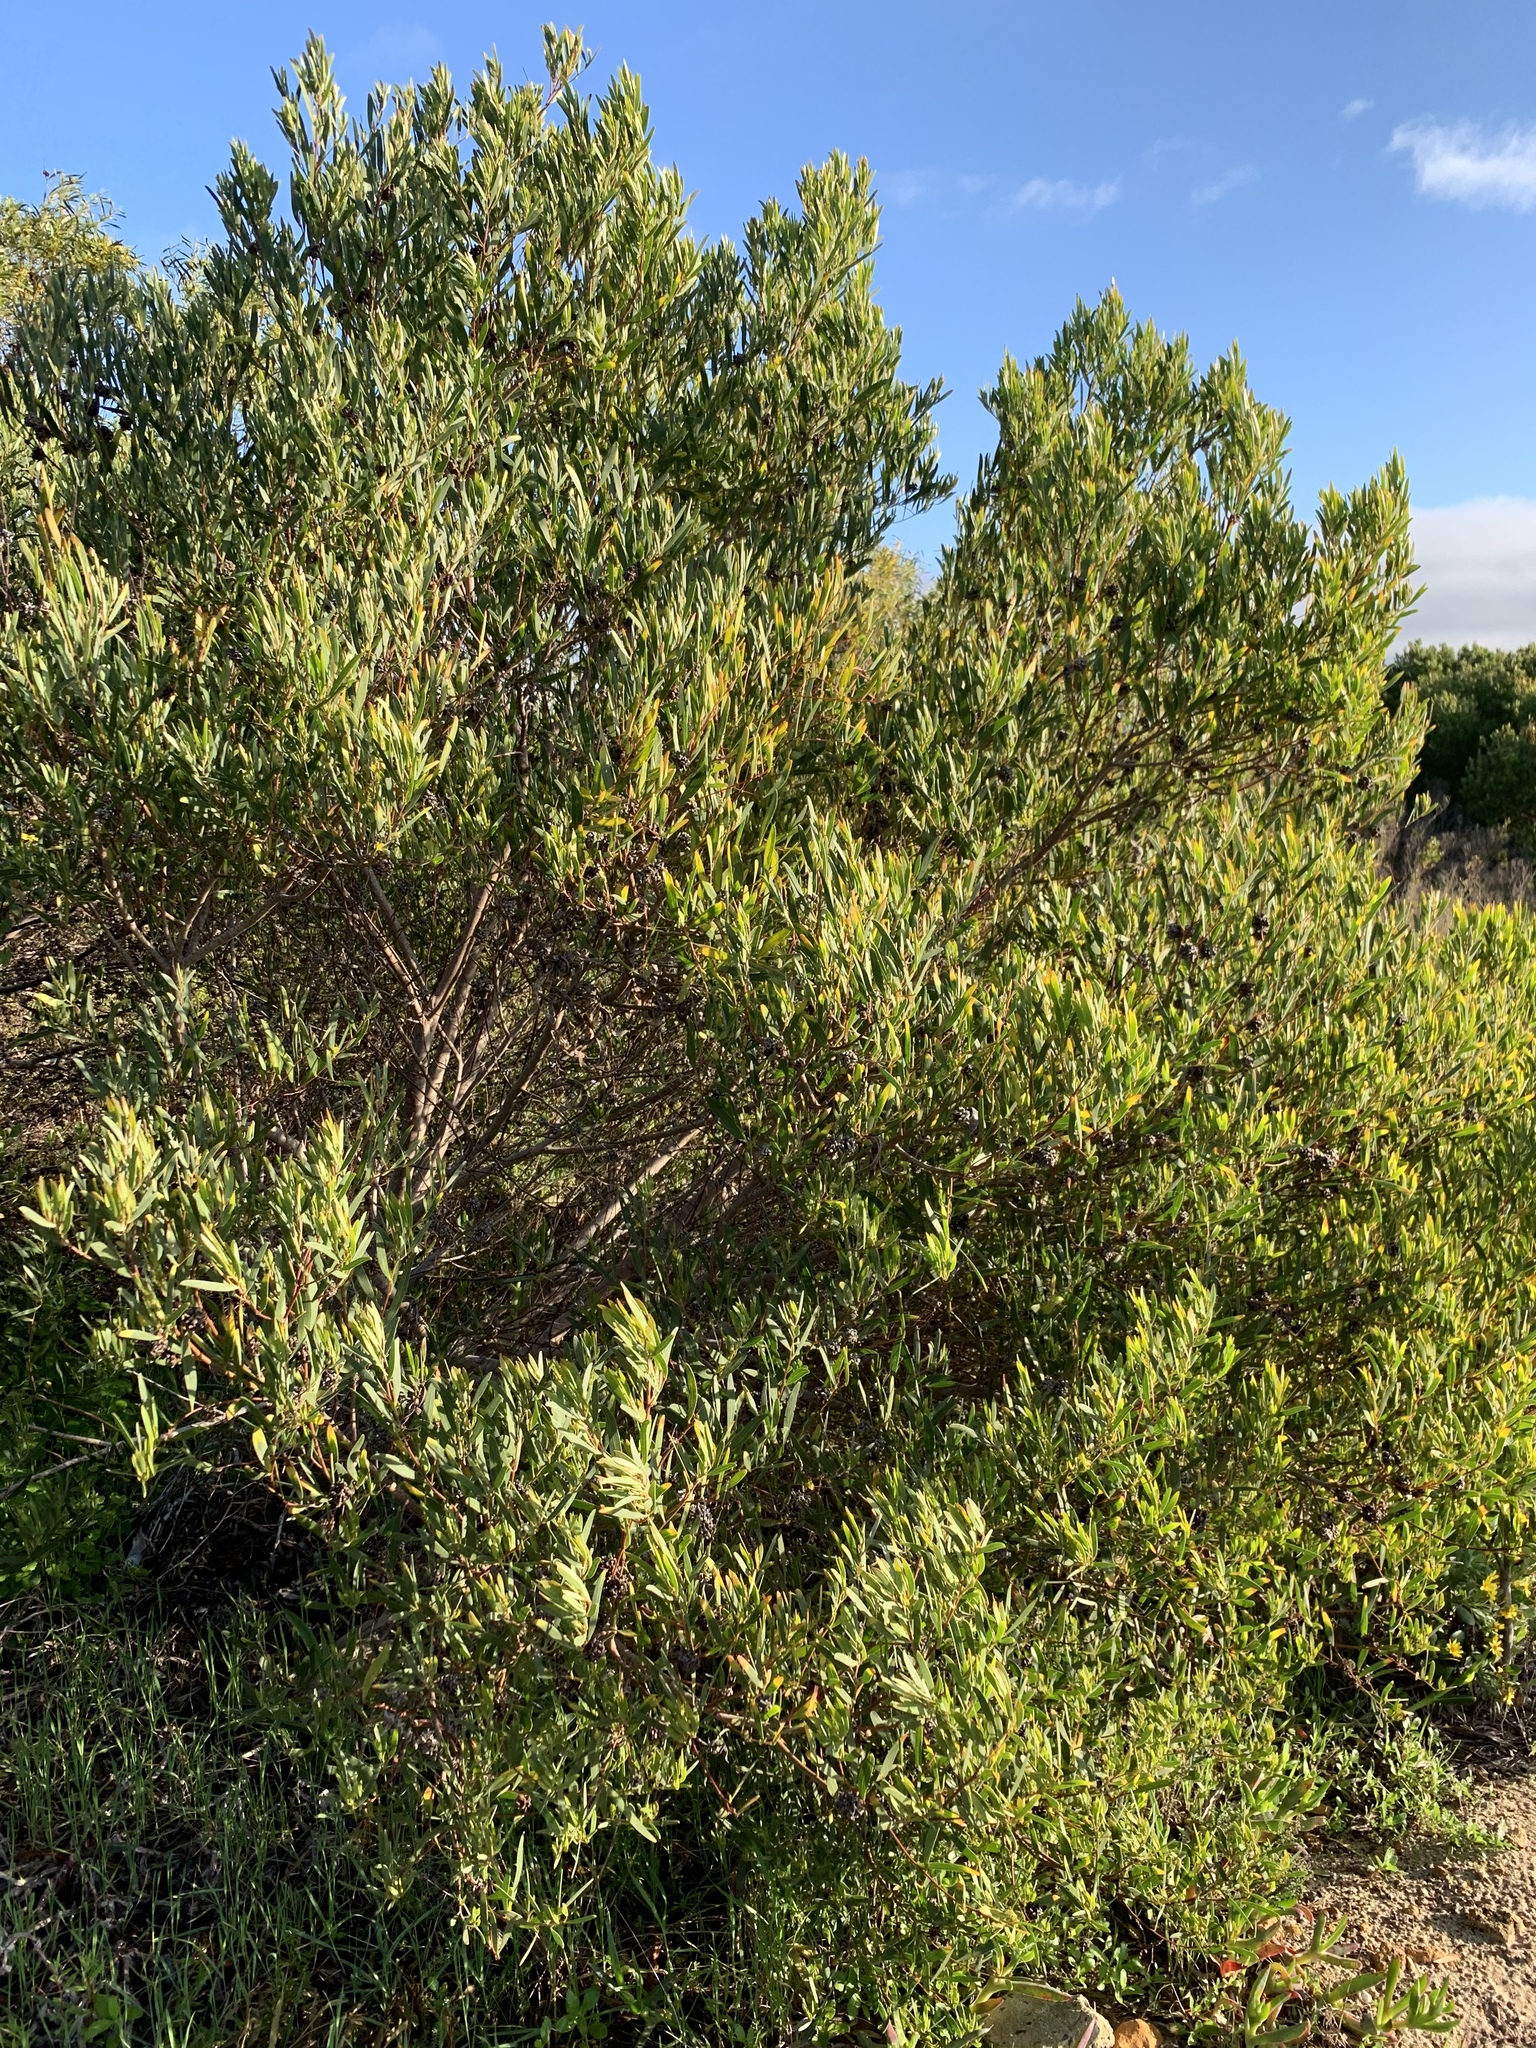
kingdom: Plantae
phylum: Tracheophyta
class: Magnoliopsida
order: Fabales
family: Fabaceae
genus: Acacia
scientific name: Acacia saligna
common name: Orange wattle
